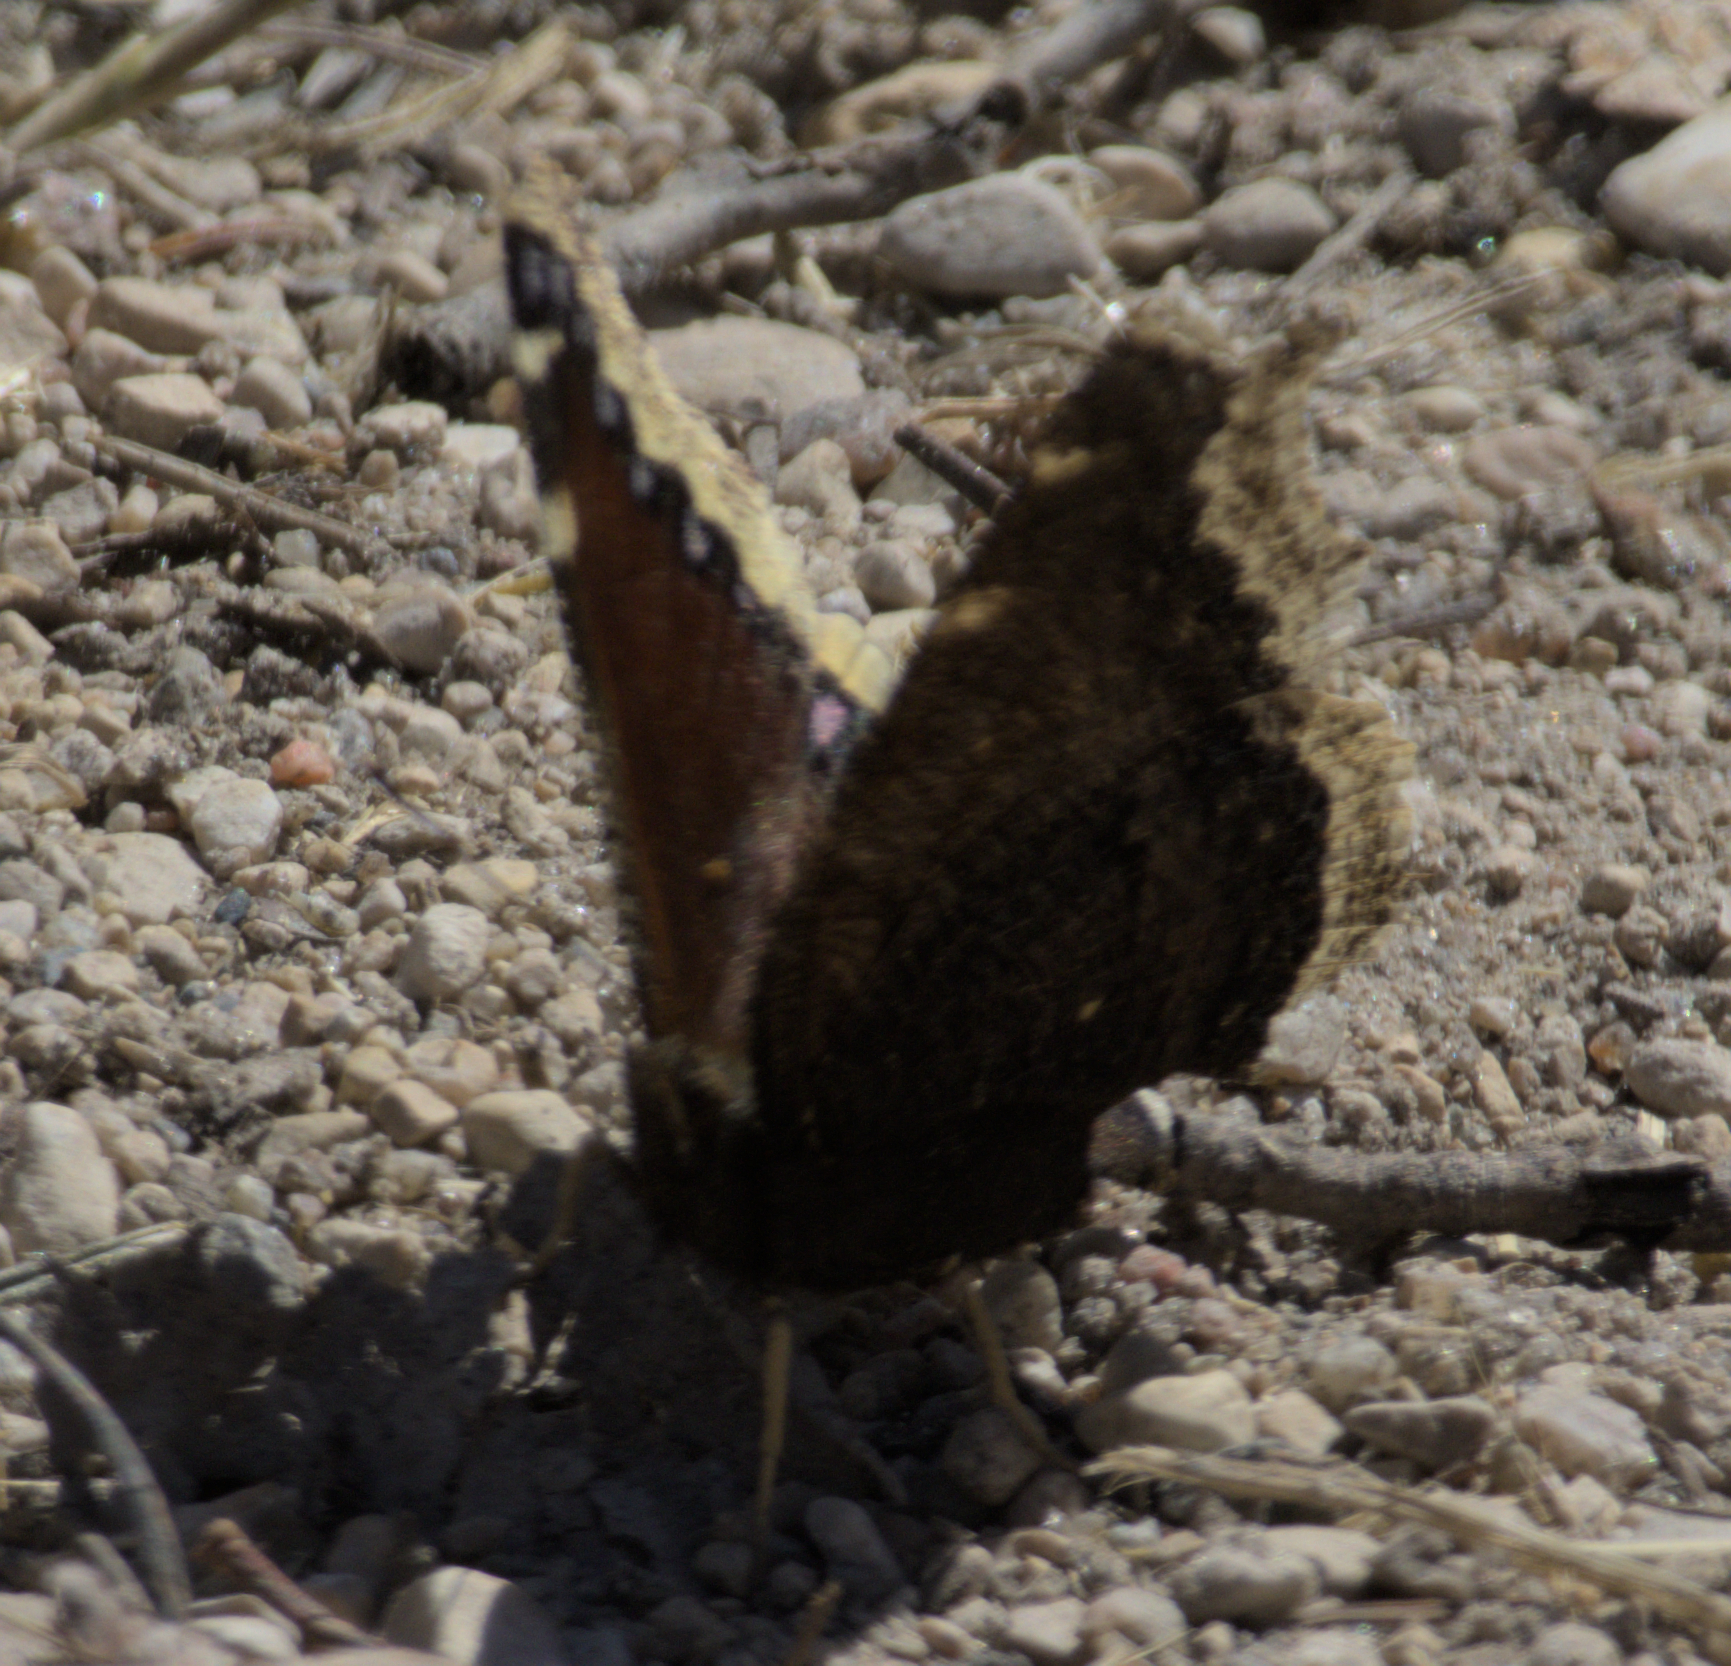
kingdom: Animalia
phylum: Arthropoda
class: Insecta
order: Lepidoptera
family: Nymphalidae
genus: Nymphalis
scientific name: Nymphalis antiopa
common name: Camberwell beauty
